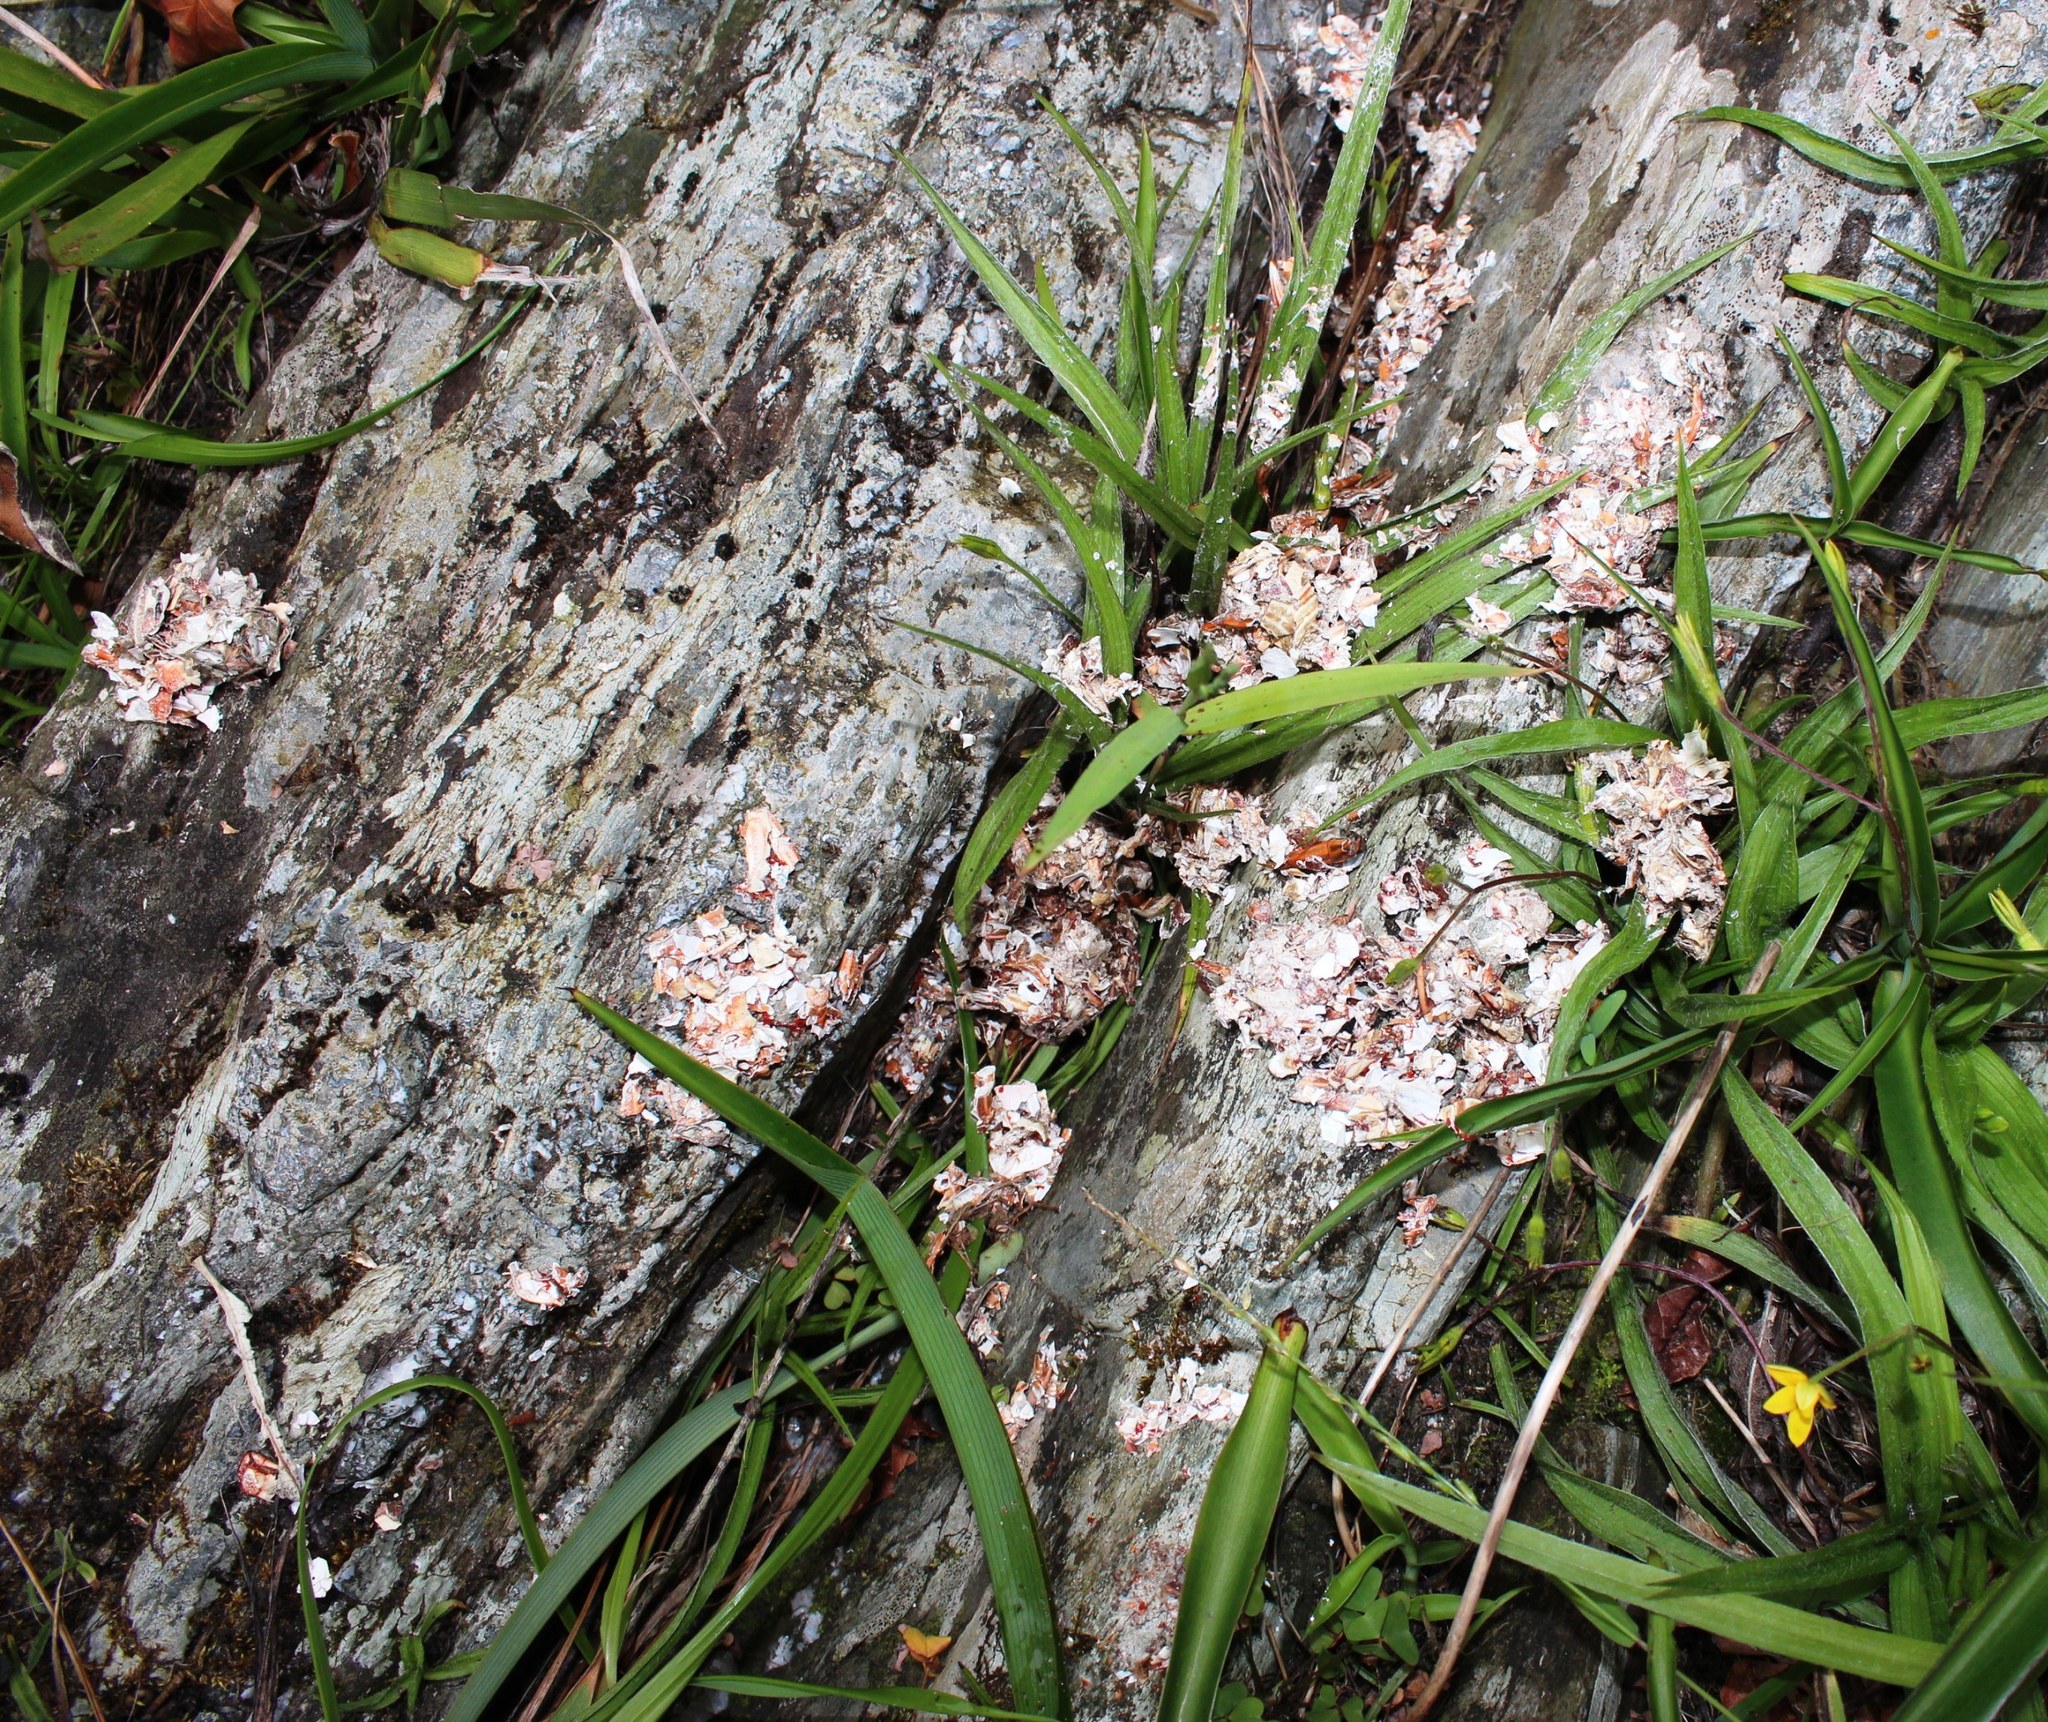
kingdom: Animalia
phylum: Chordata
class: Mammalia
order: Carnivora
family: Mustelidae
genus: Aonyx
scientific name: Aonyx capensis
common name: African clawless otter
